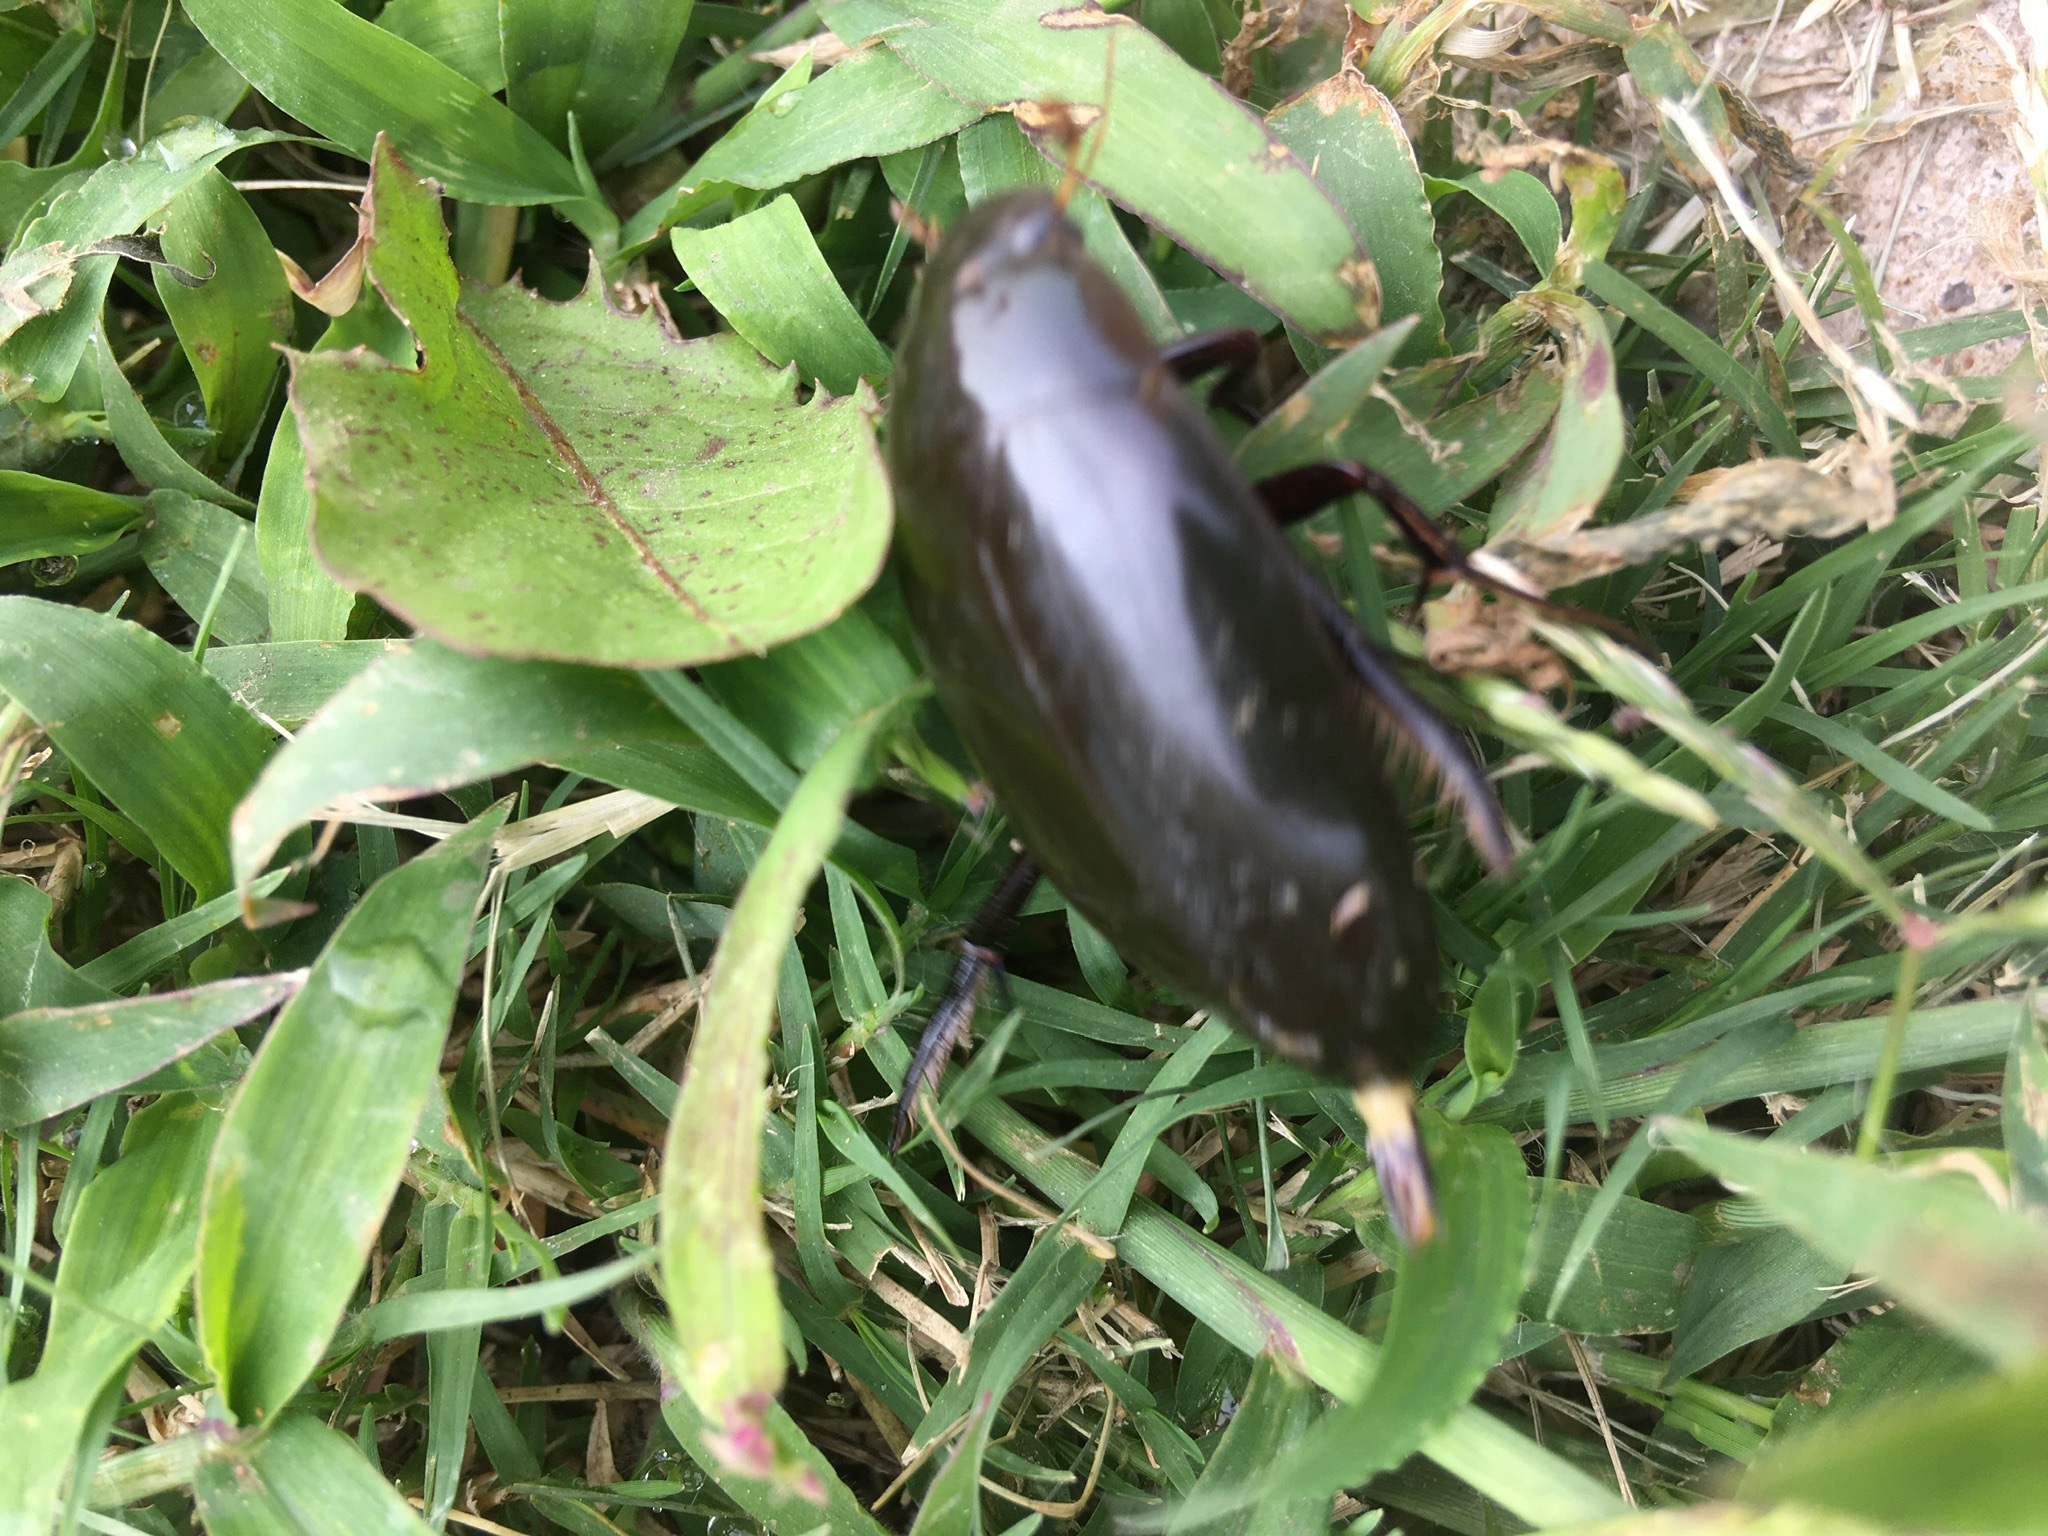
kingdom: Animalia
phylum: Arthropoda
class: Insecta
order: Coleoptera
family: Hydrophilidae
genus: Hydrophilus
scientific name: Hydrophilus triangularis
